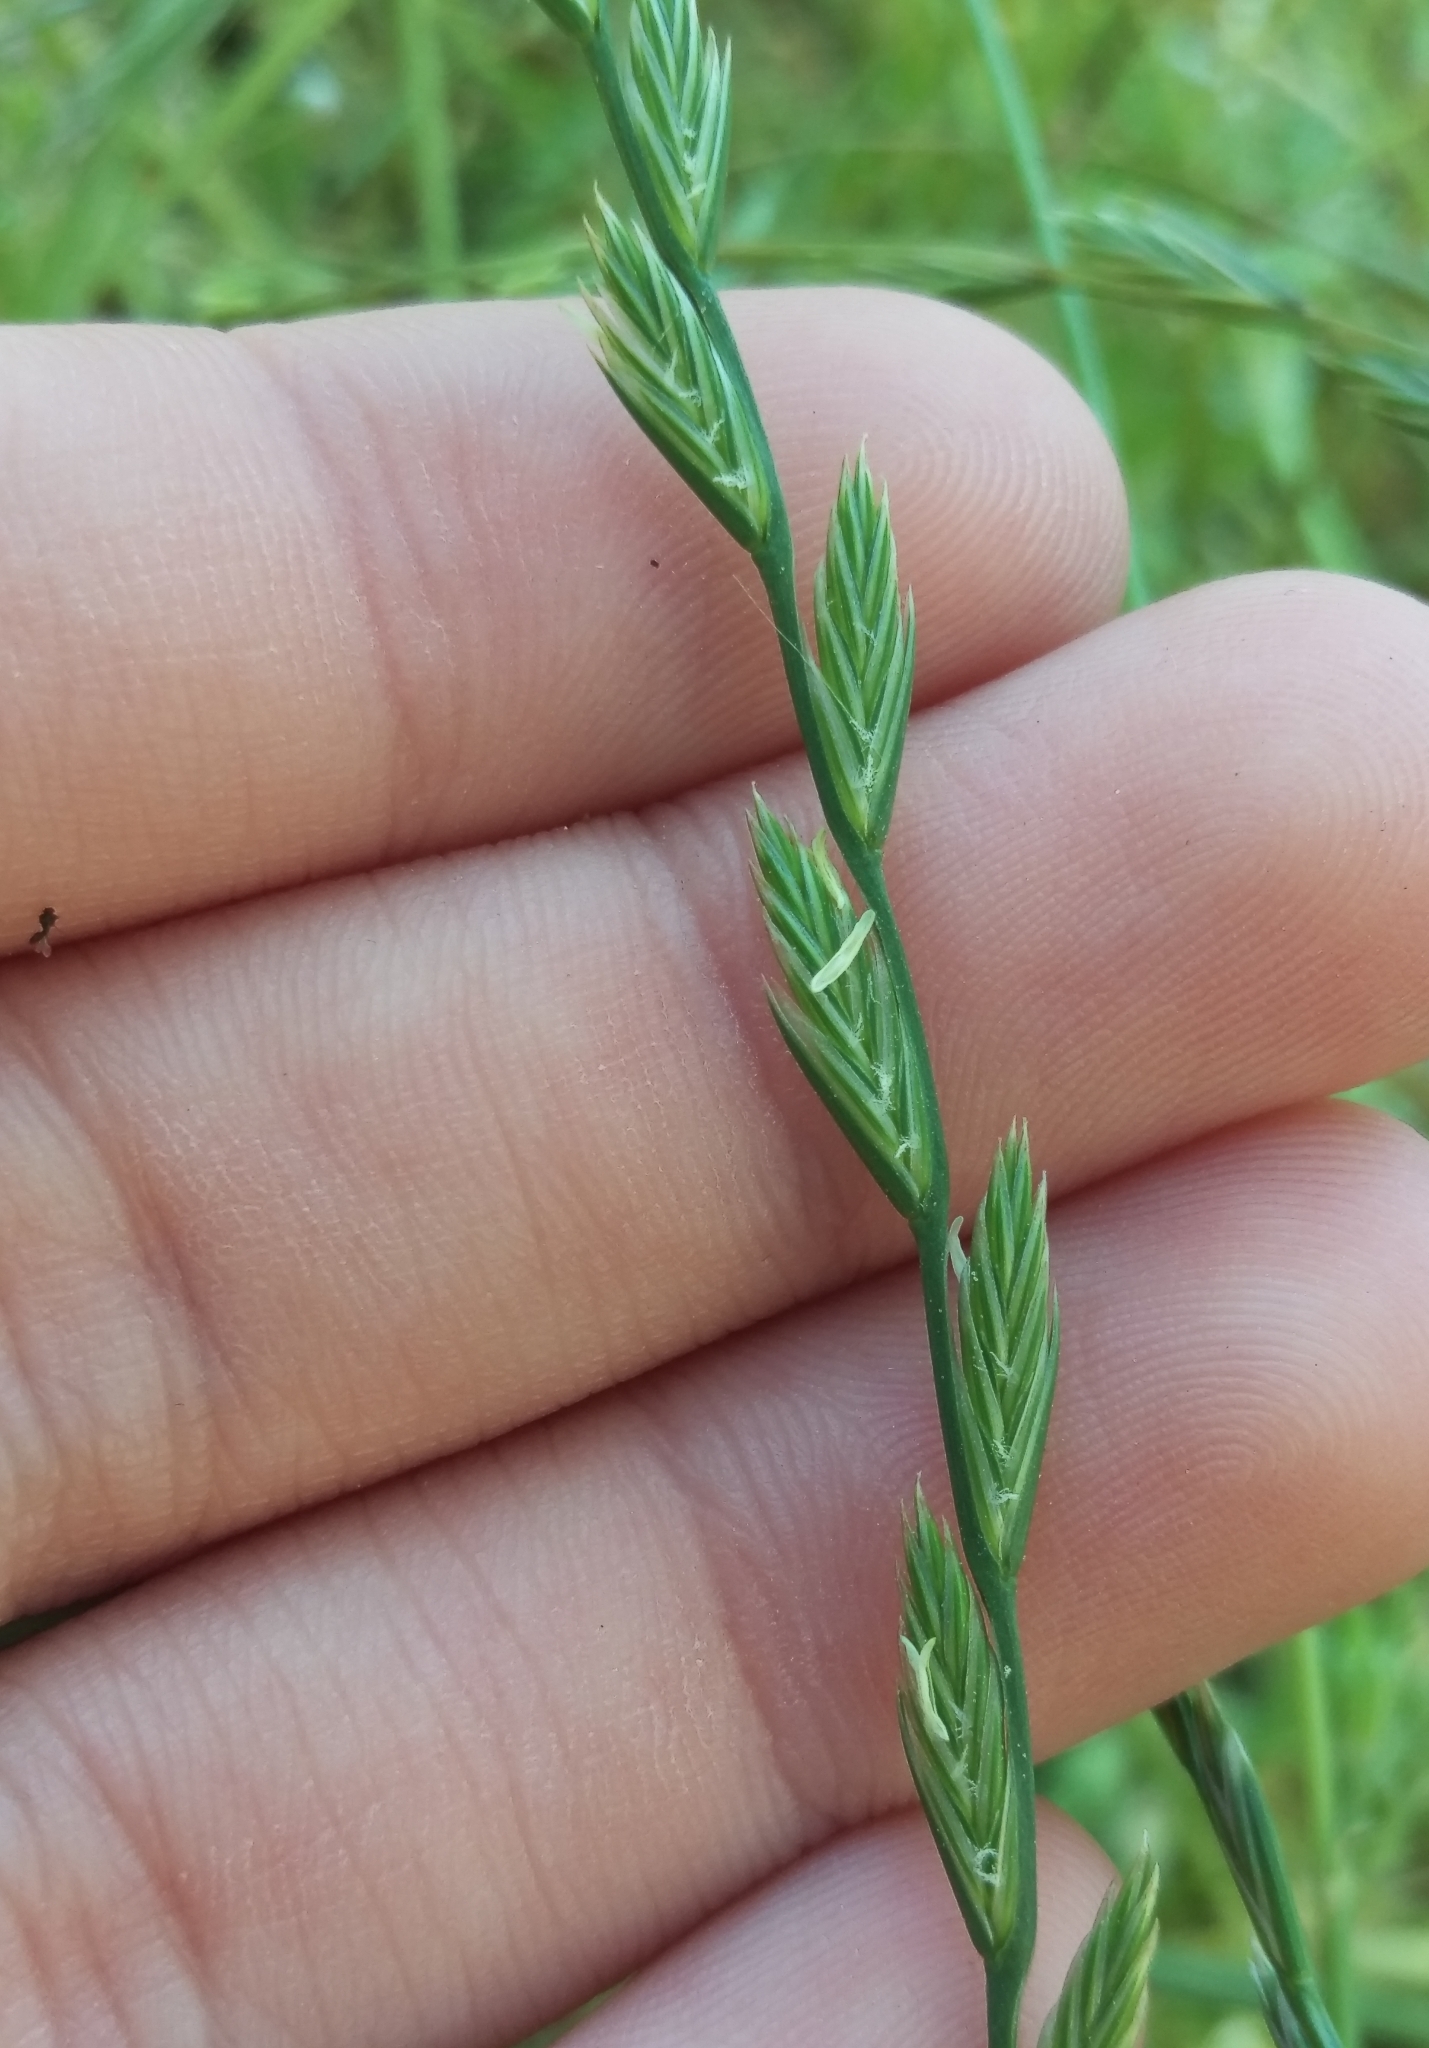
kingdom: Plantae
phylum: Tracheophyta
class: Liliopsida
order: Poales
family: Poaceae
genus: Lolium
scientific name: Lolium perenne
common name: Perennial ryegrass
